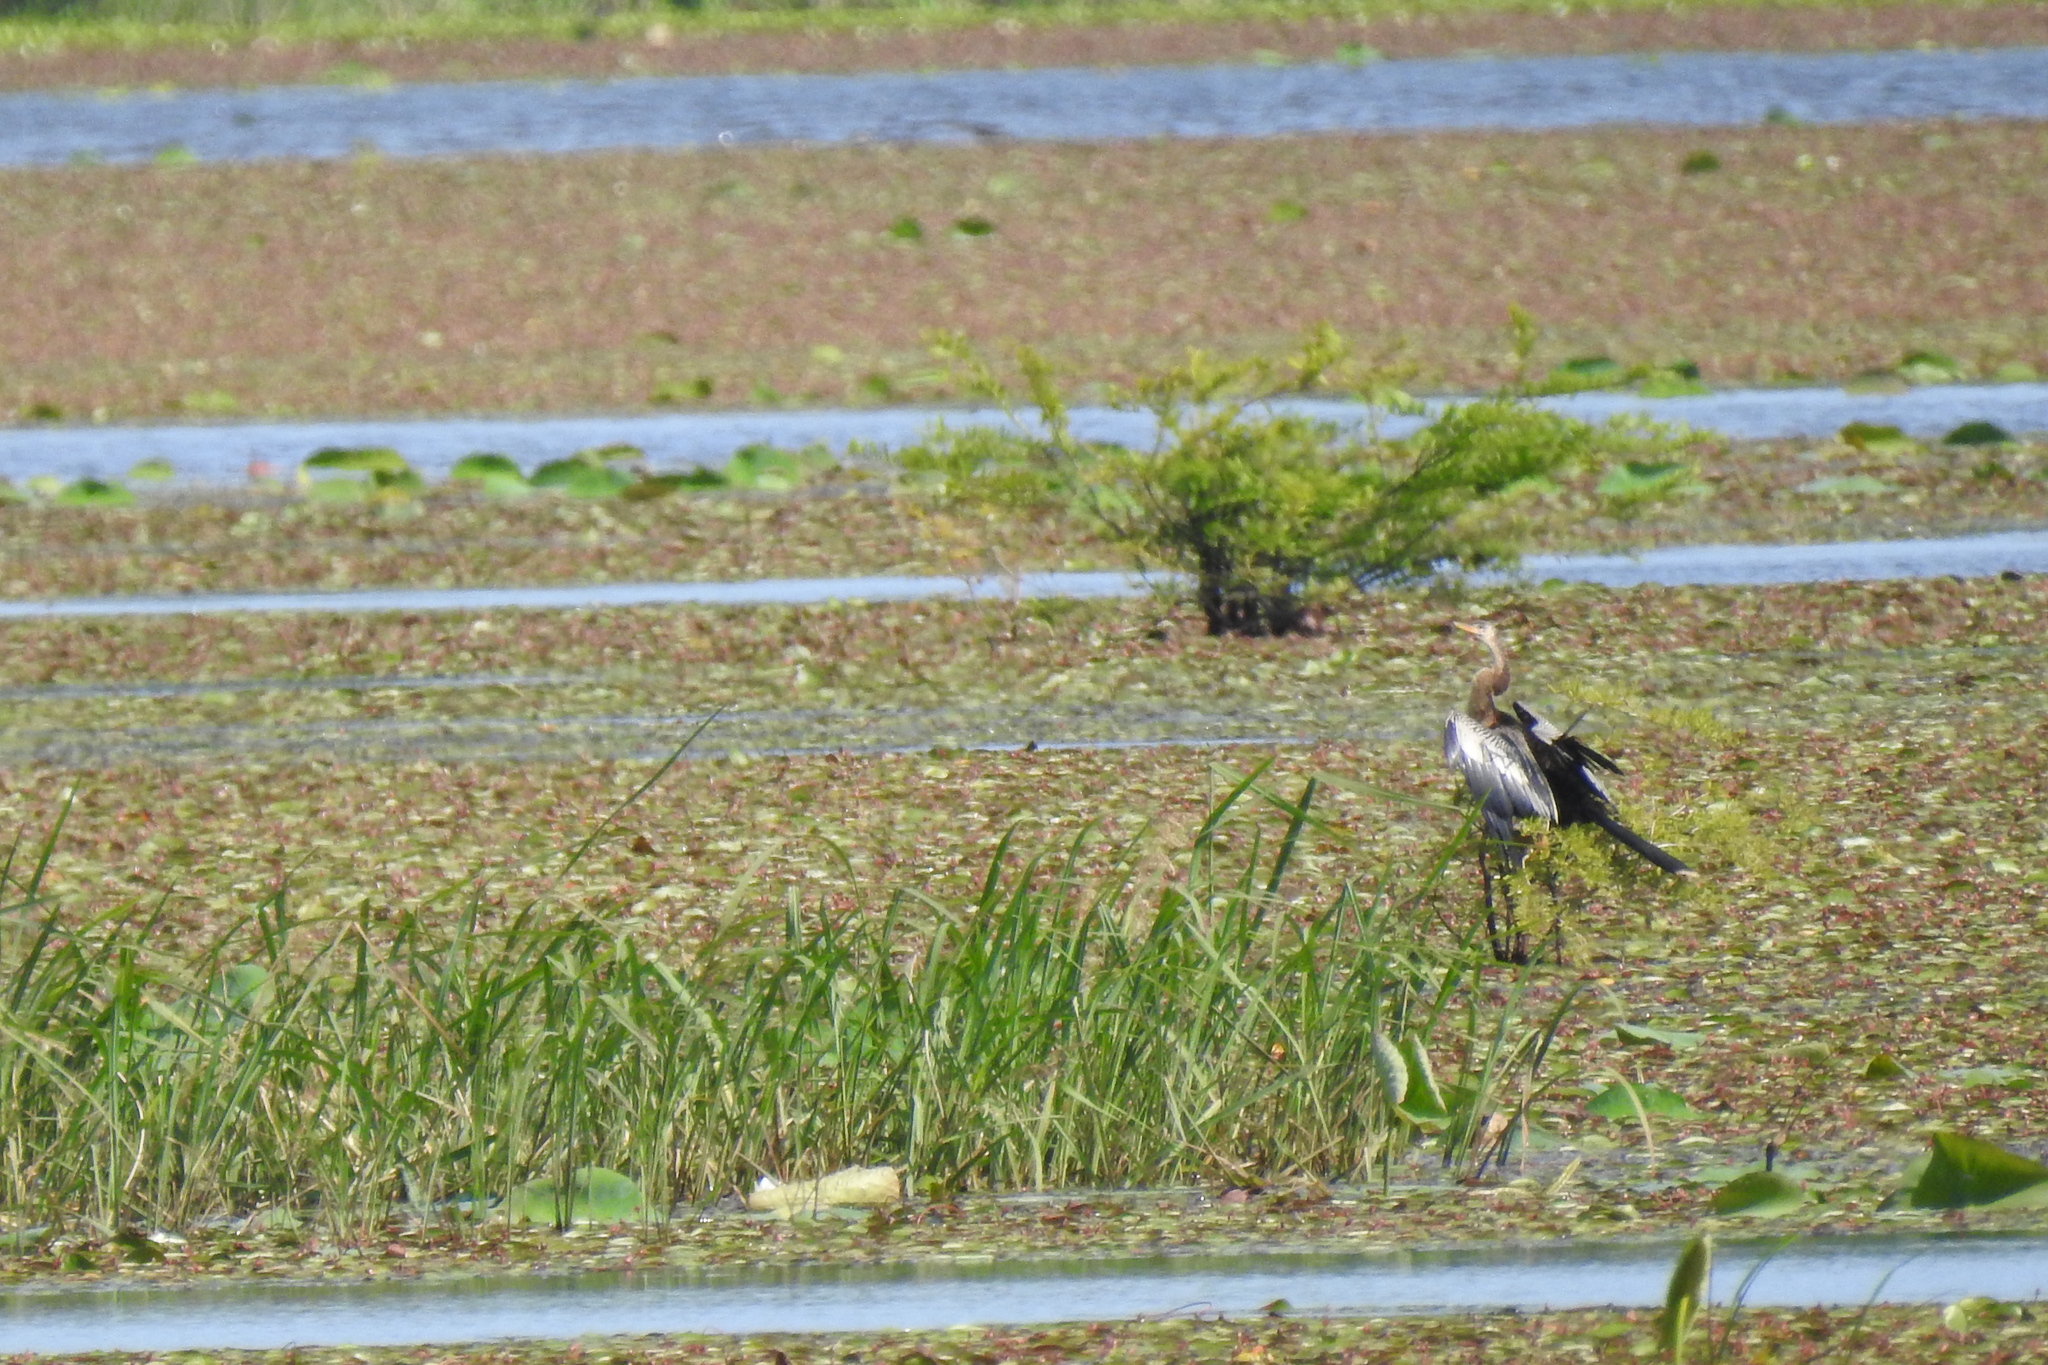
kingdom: Animalia
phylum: Chordata
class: Aves
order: Suliformes
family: Anhingidae
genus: Anhinga
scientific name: Anhinga anhinga
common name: Anhinga
